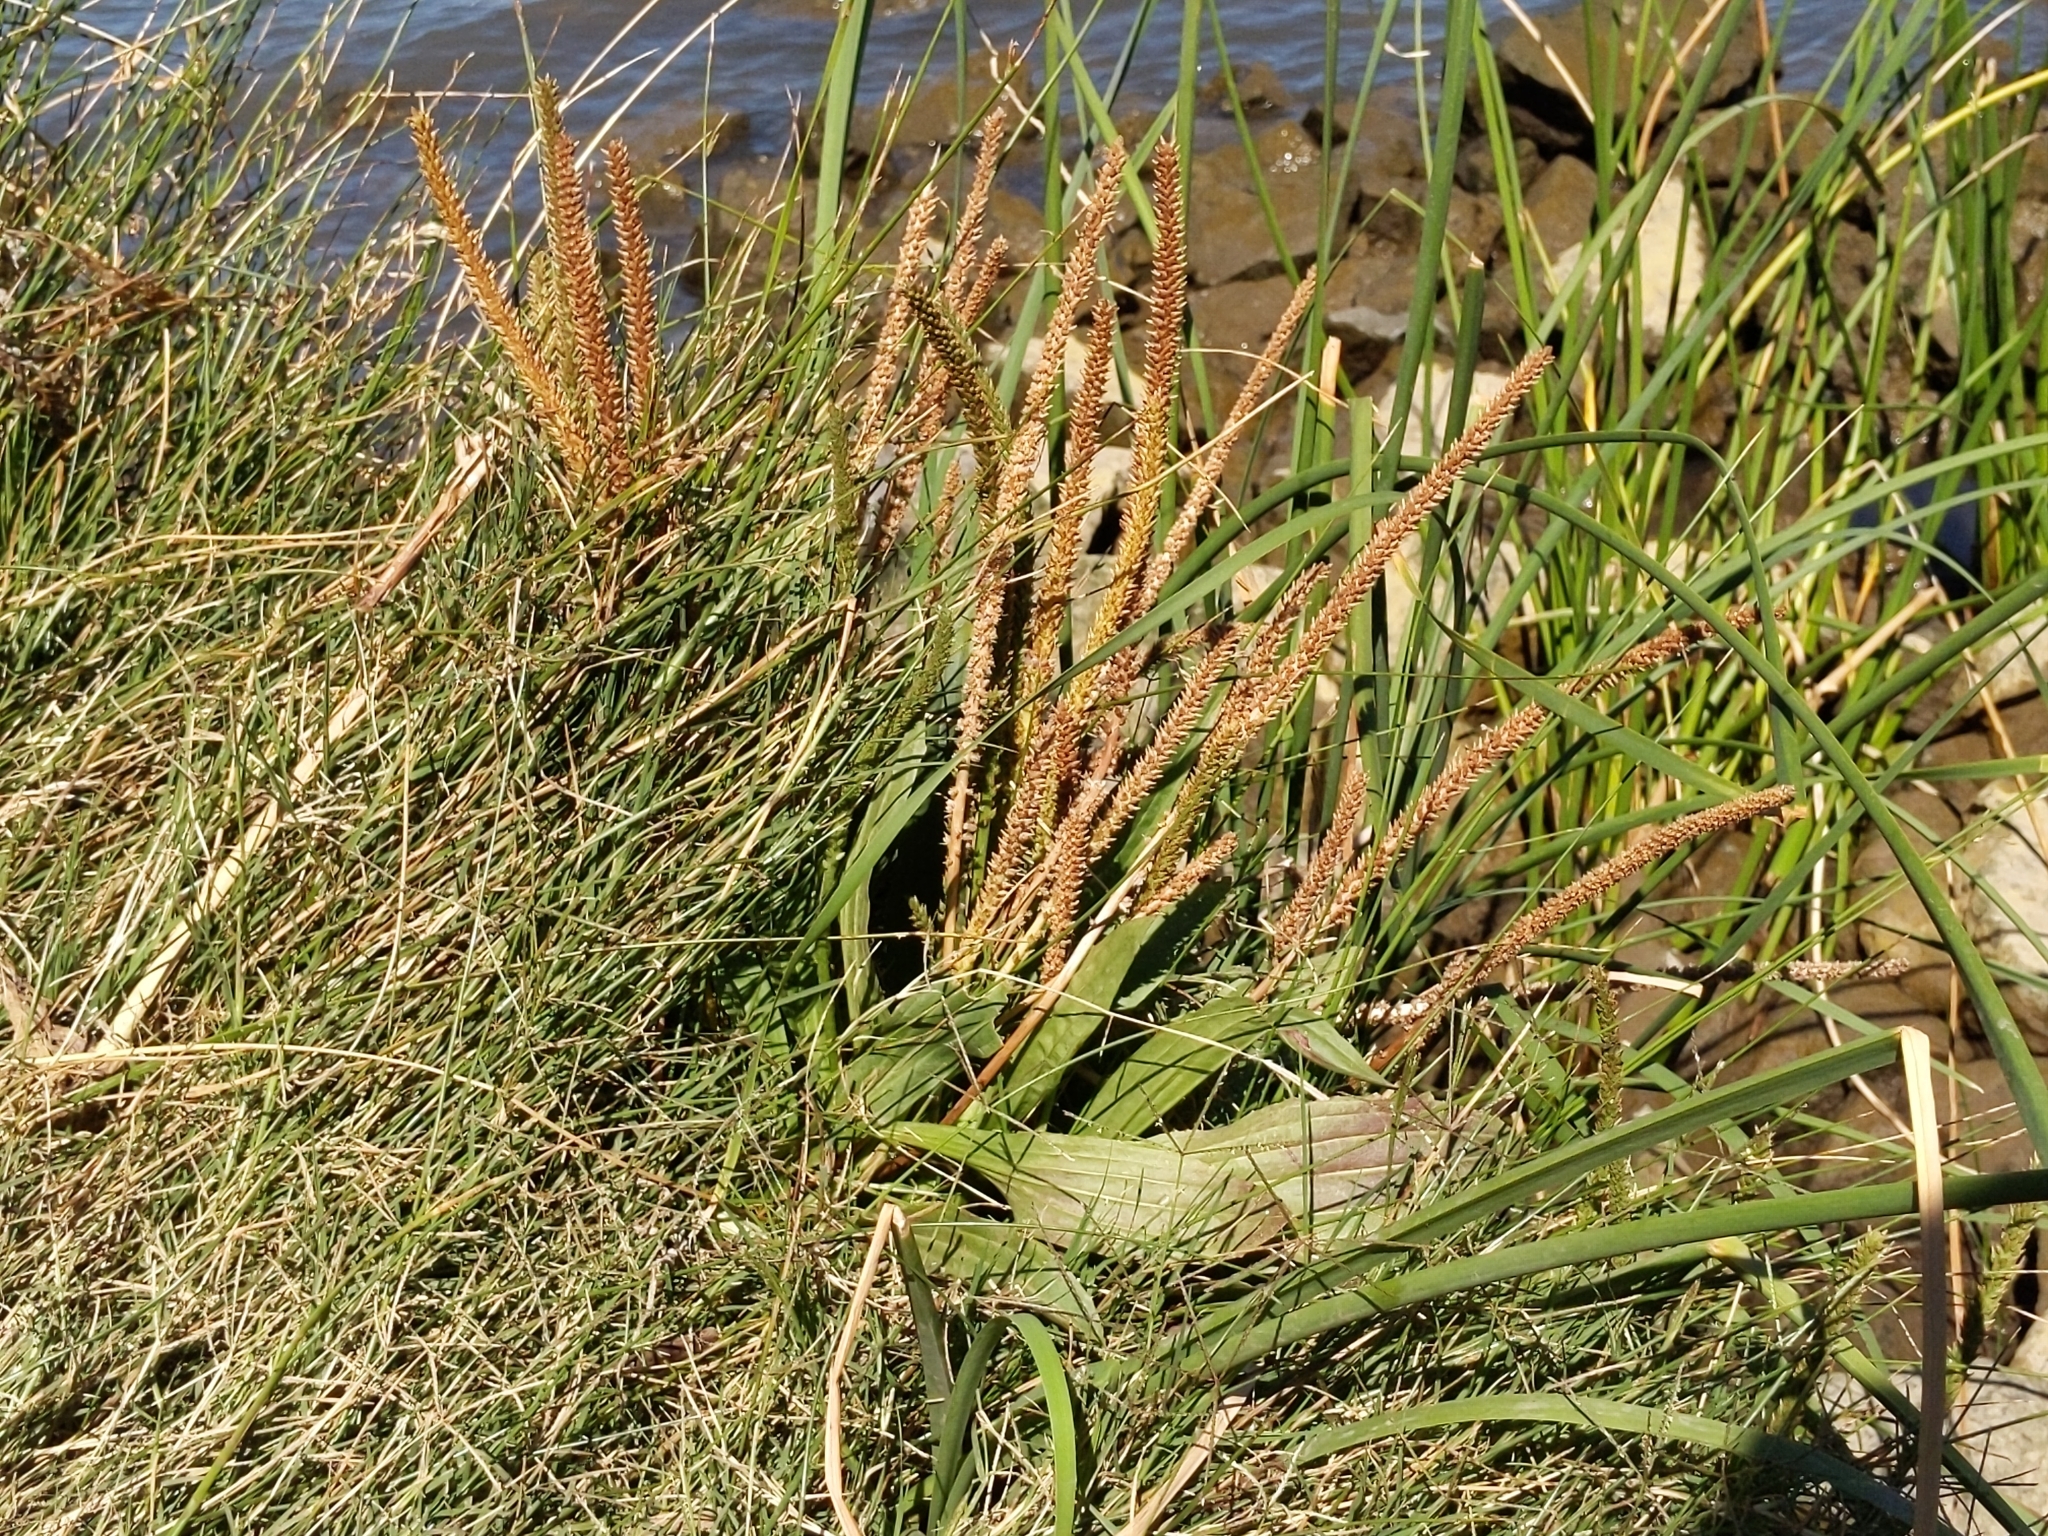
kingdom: Plantae
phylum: Tracheophyta
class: Magnoliopsida
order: Lamiales
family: Plantaginaceae
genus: Plantago
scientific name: Plantago subnuda
